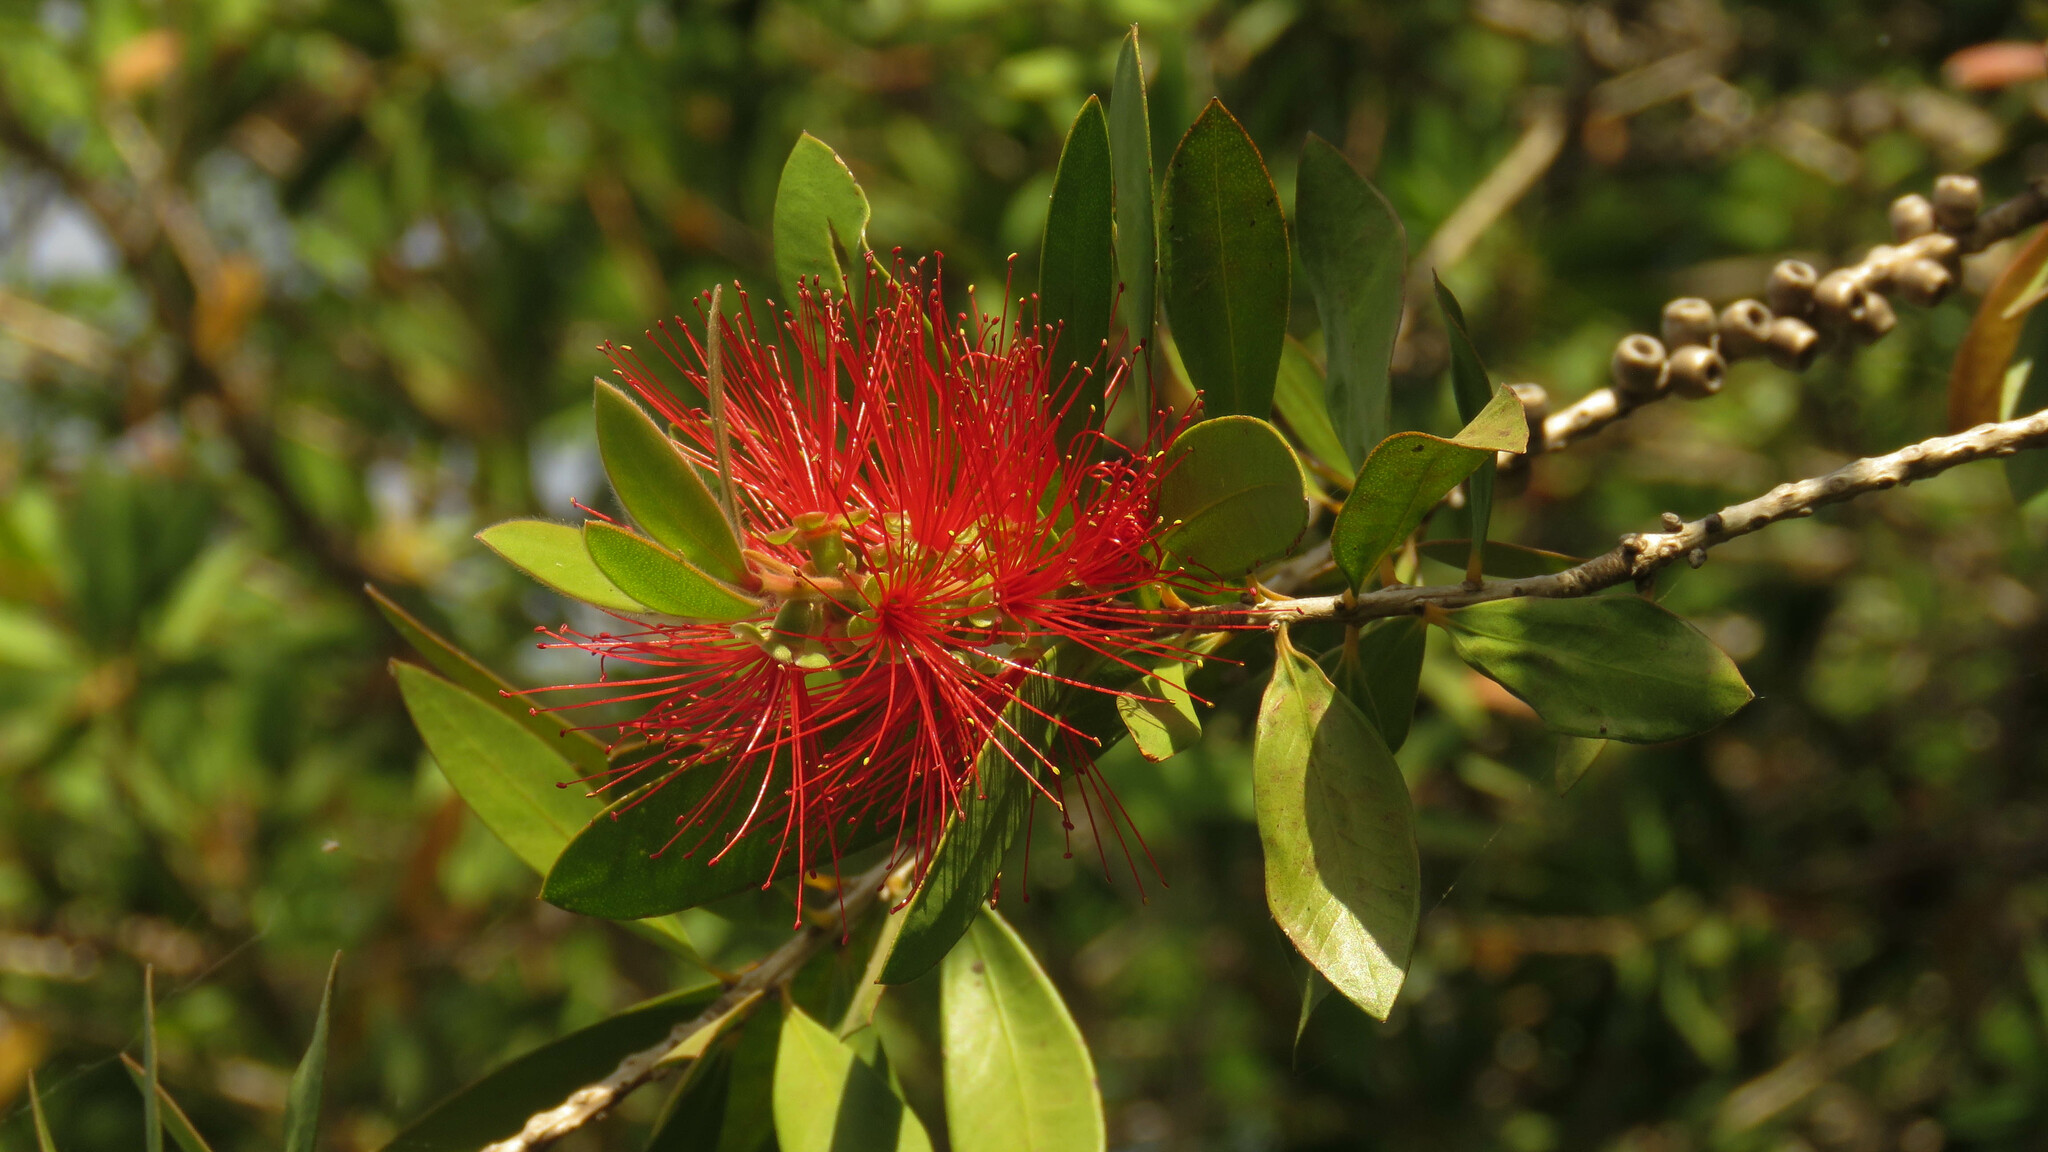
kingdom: Plantae
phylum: Tracheophyta
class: Magnoliopsida
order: Myrtales
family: Myrtaceae
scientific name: Myrtaceae
